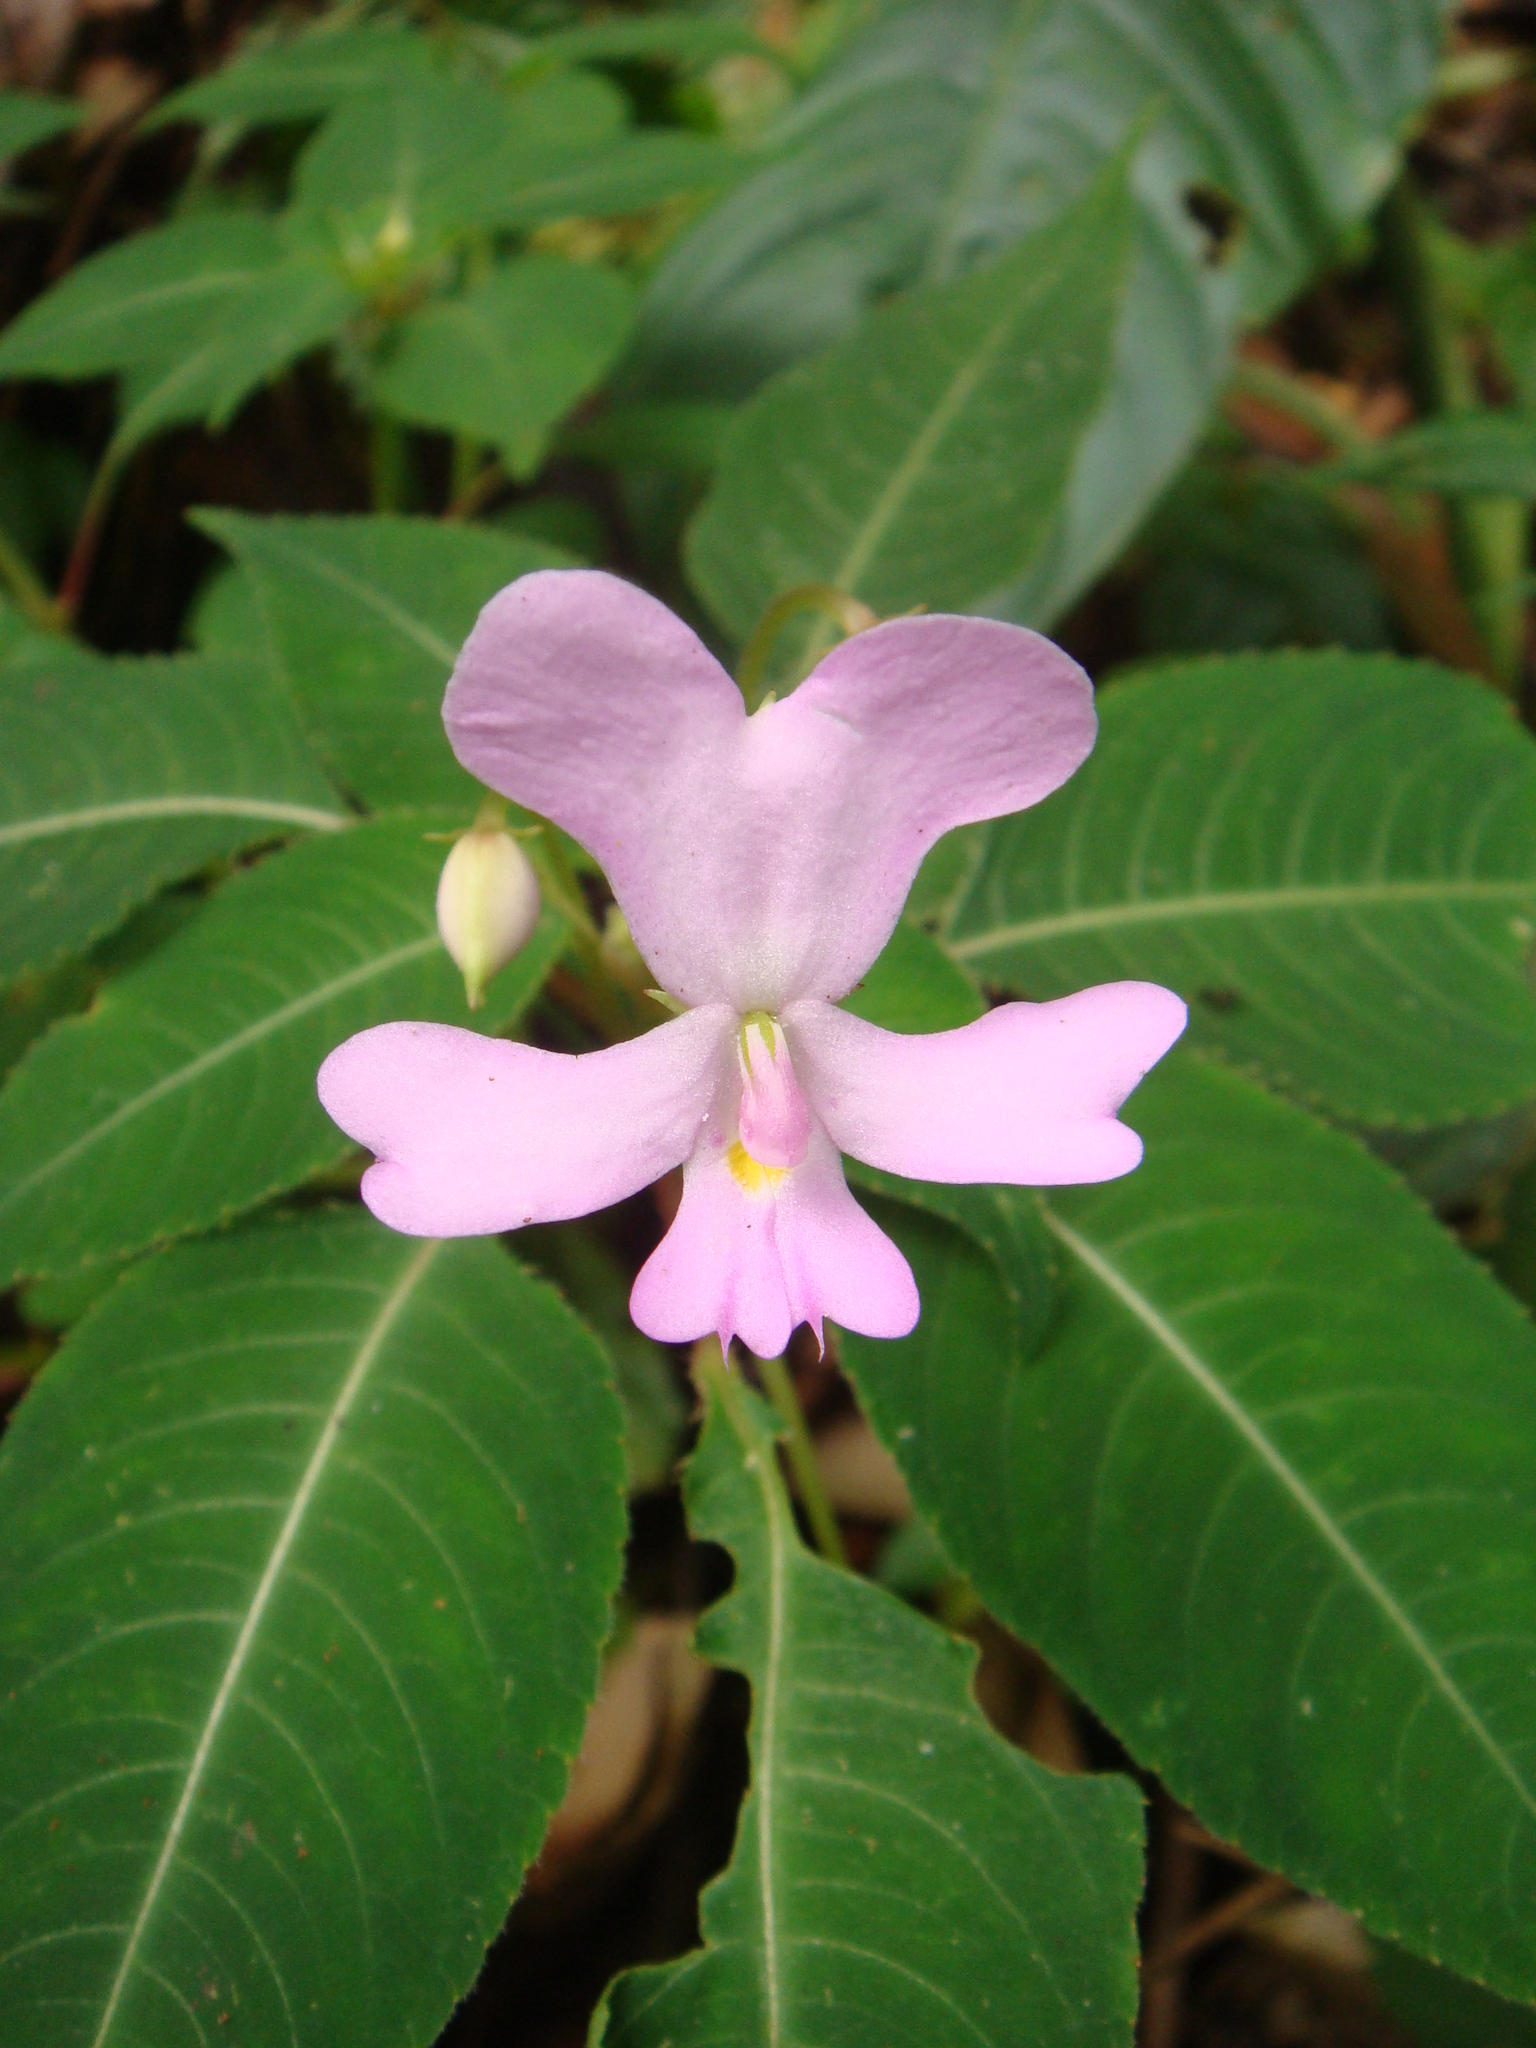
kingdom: Plantae
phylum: Tracheophyta
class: Magnoliopsida
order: Ericales
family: Balsaminaceae
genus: Impatiens
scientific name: Impatiens kinabaluensis
